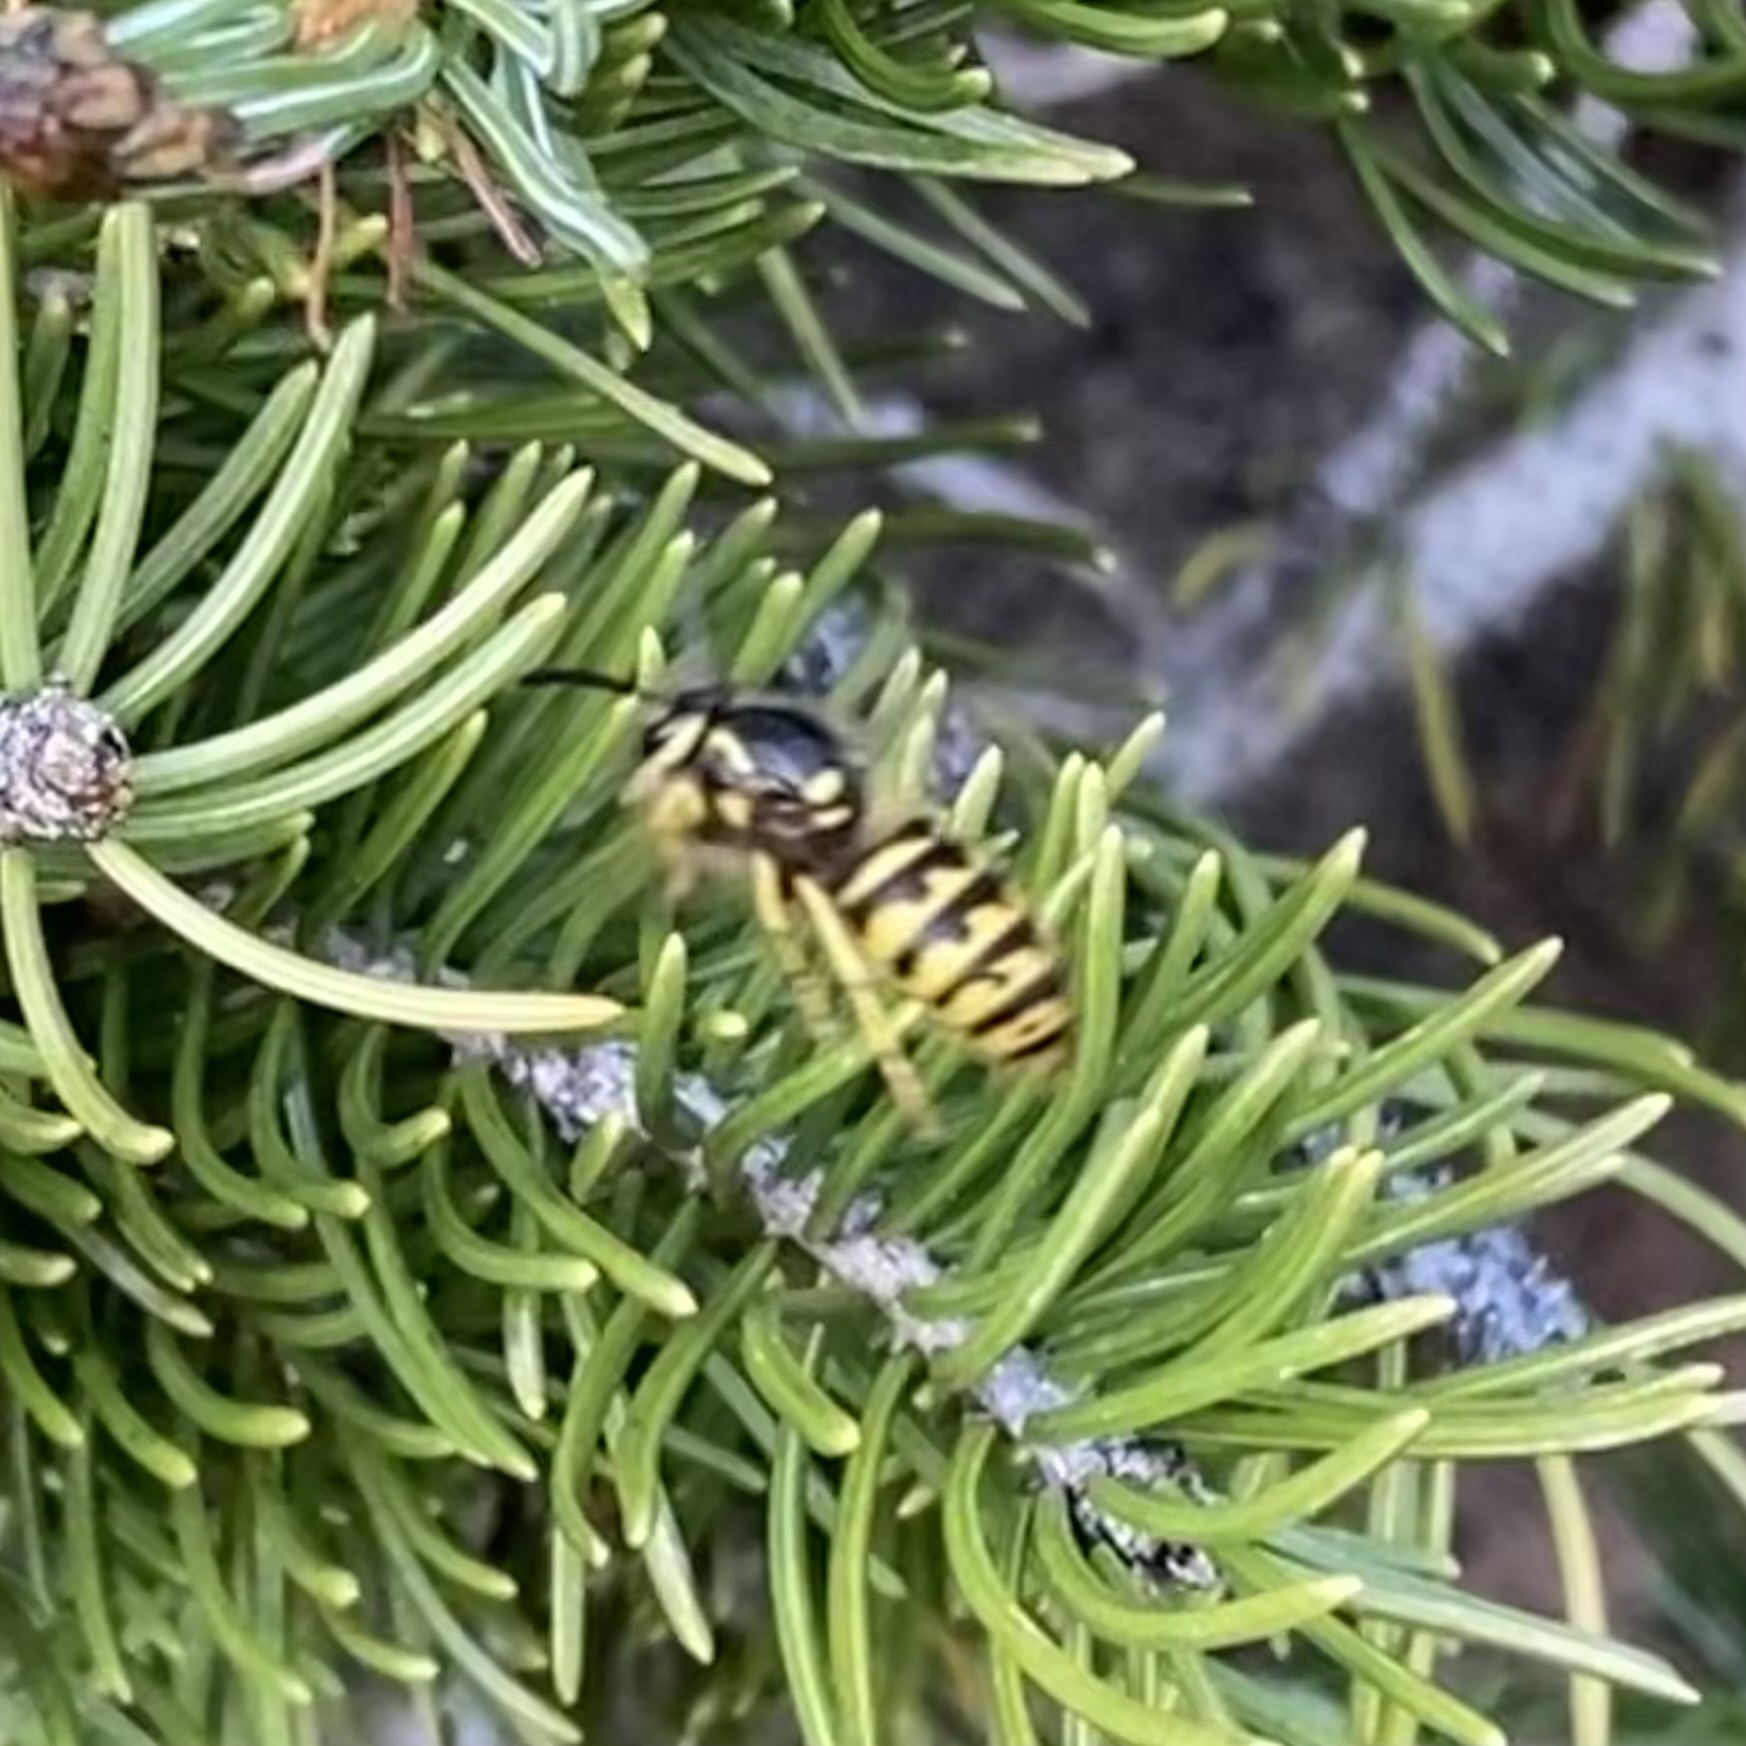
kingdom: Animalia
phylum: Arthropoda
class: Insecta
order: Hymenoptera
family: Vespidae
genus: Dolichovespula
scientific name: Dolichovespula arenaria
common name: Aerial yellowjacket
